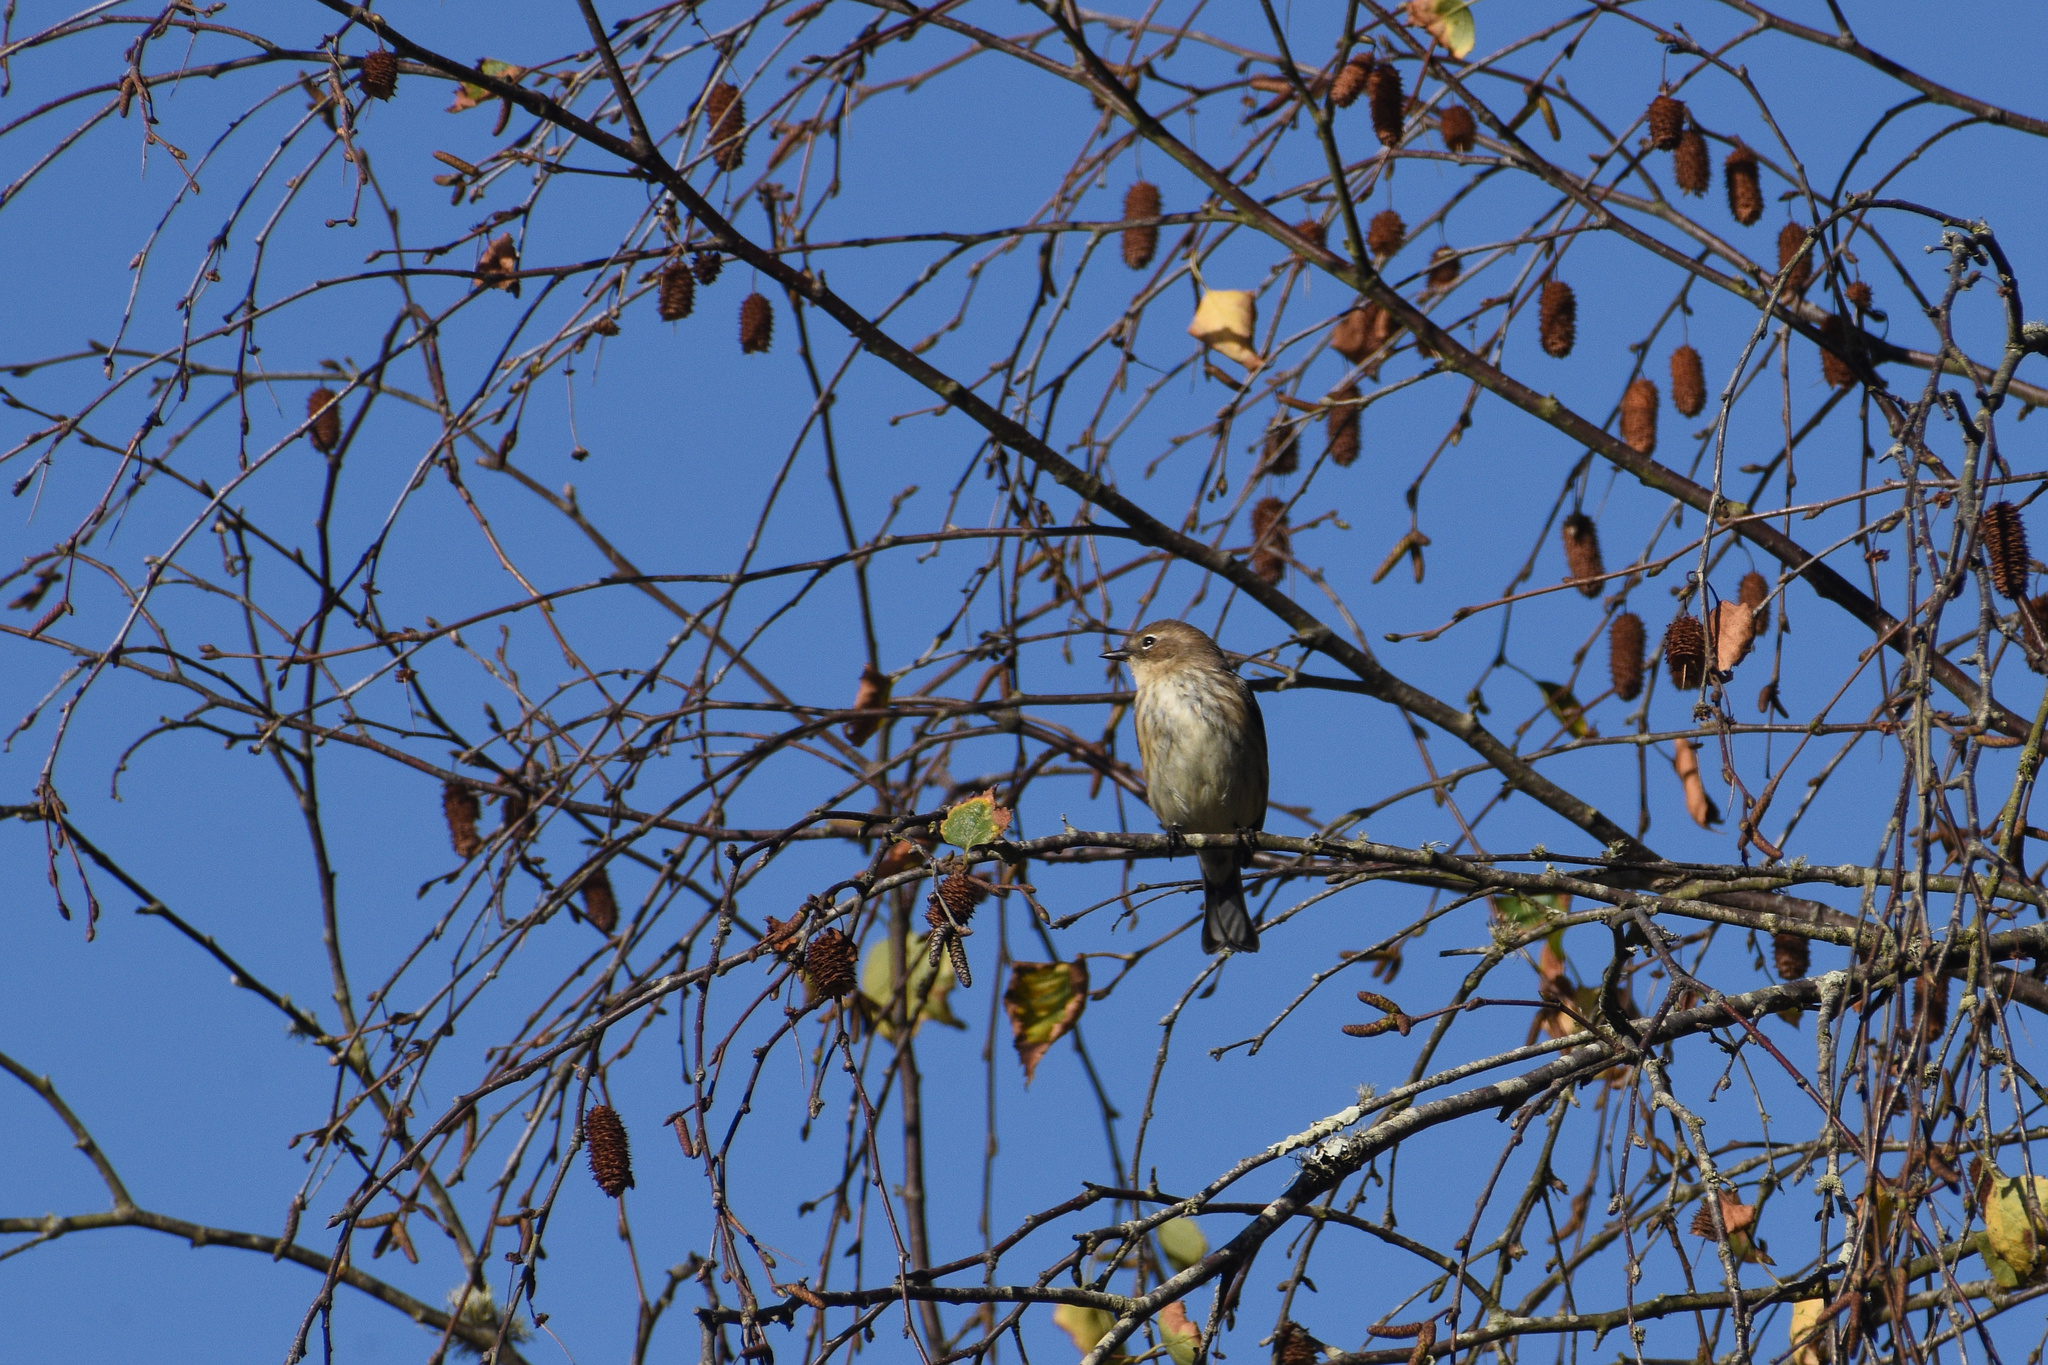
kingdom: Animalia
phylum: Chordata
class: Aves
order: Passeriformes
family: Parulidae
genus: Setophaga
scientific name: Setophaga coronata
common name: Myrtle warbler
